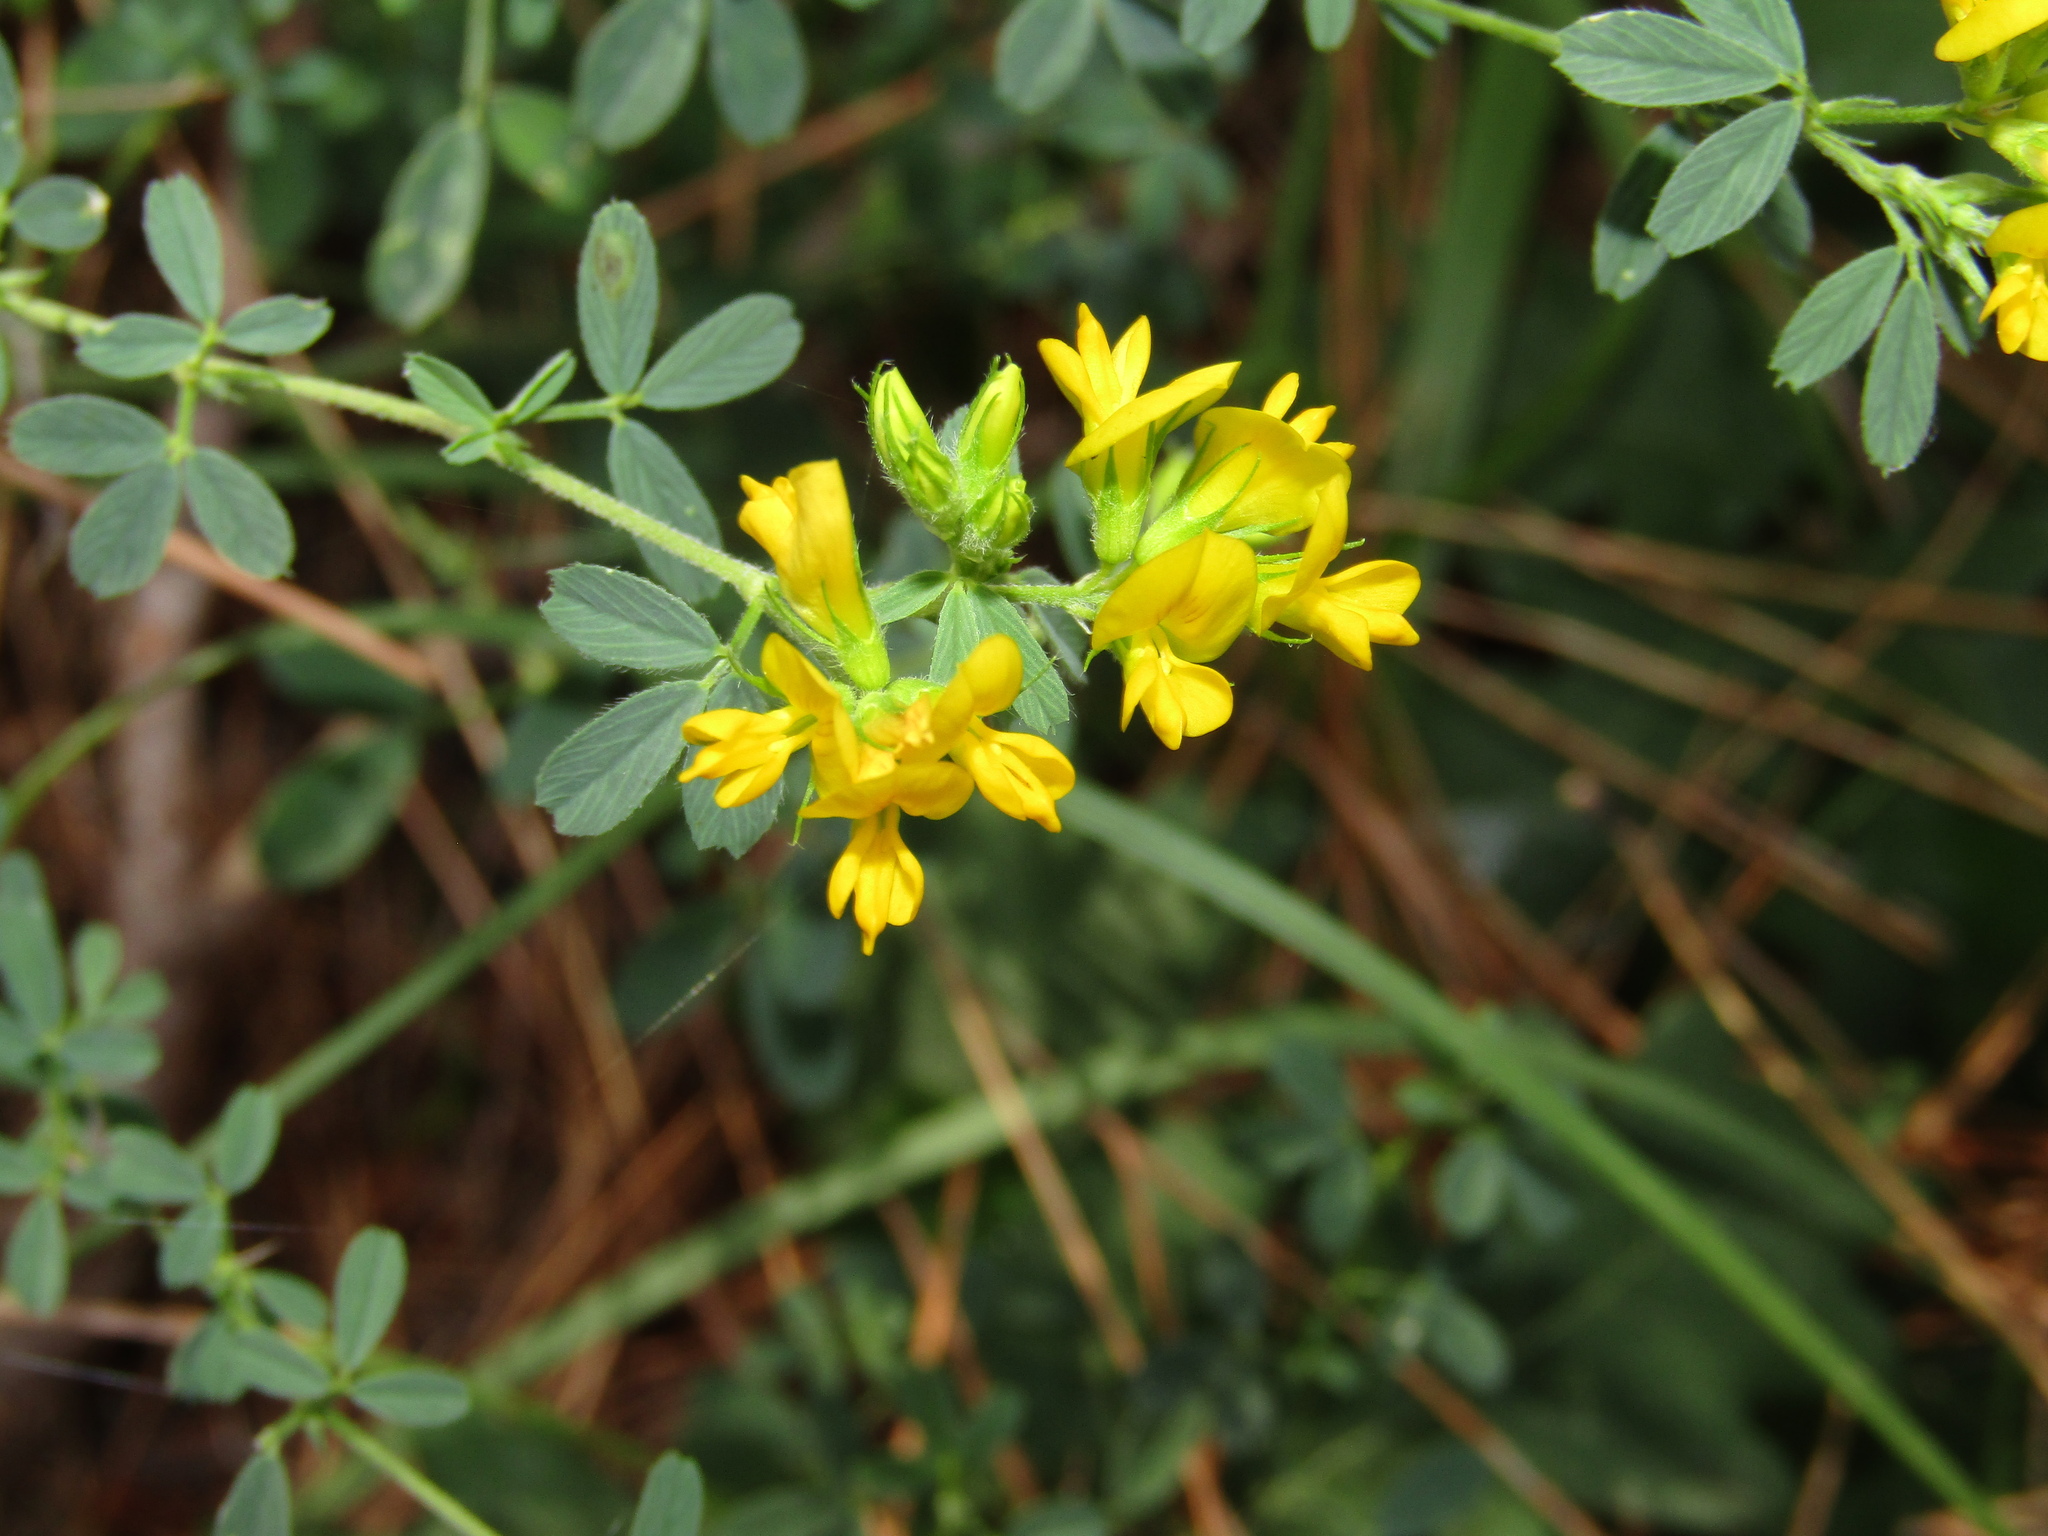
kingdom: Plantae
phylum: Tracheophyta
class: Magnoliopsida
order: Fabales
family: Fabaceae
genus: Medicago
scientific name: Medicago falcata
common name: Sickle medick
